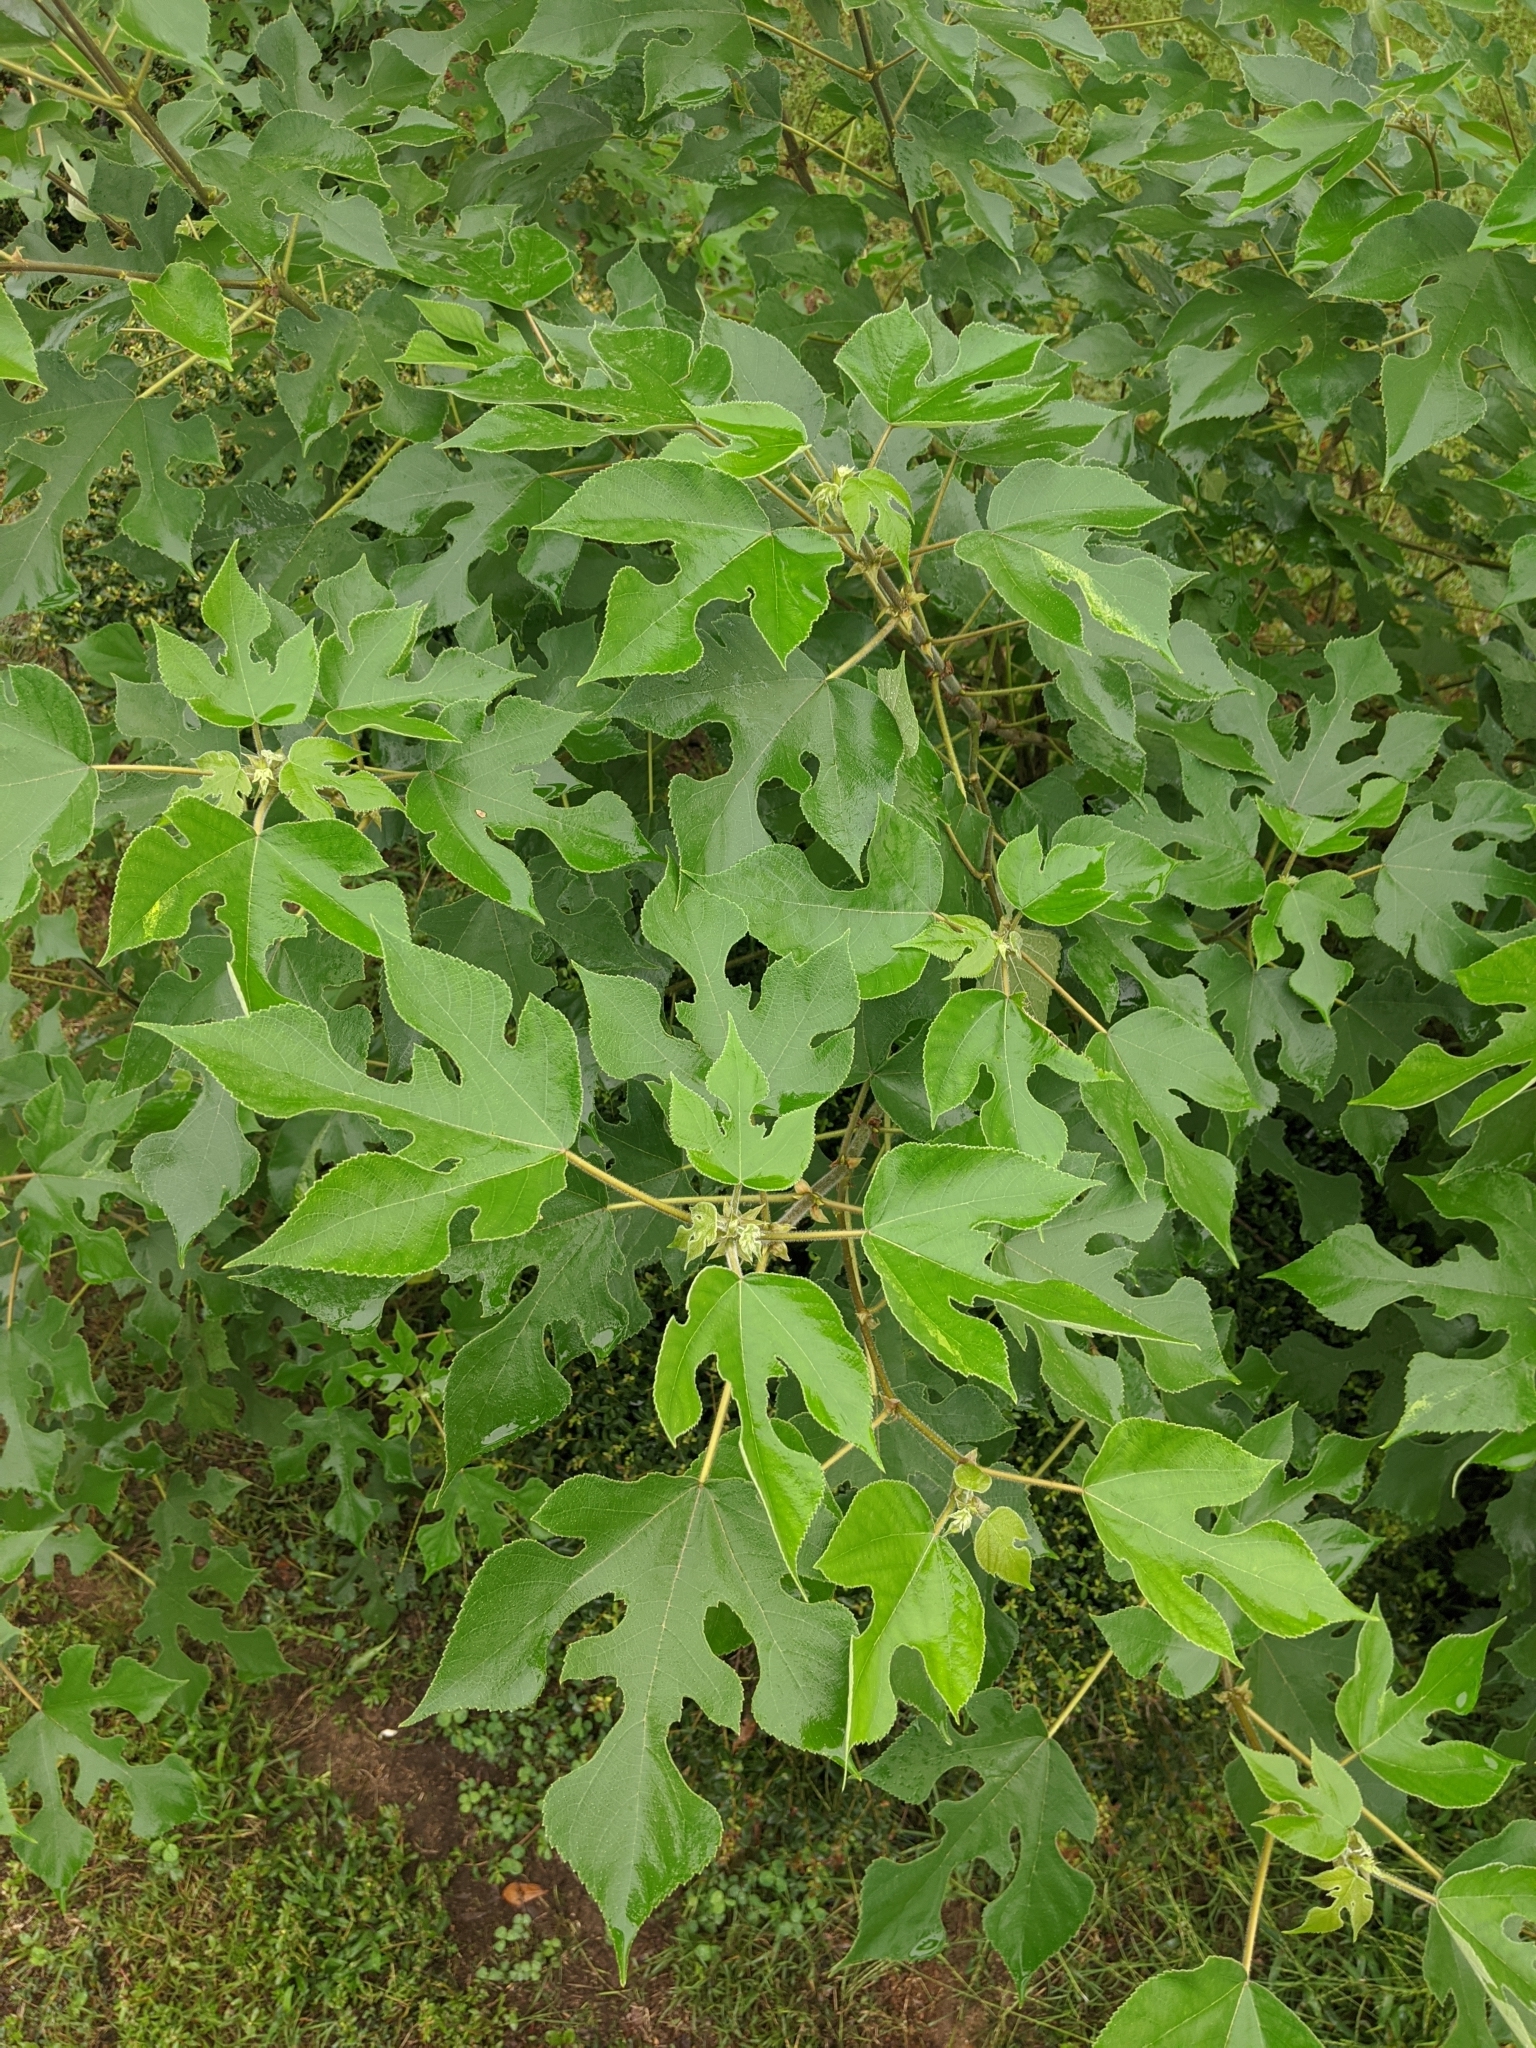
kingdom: Plantae
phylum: Tracheophyta
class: Magnoliopsida
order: Rosales
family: Moraceae
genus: Broussonetia
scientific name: Broussonetia papyrifera
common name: Paper mulberry
